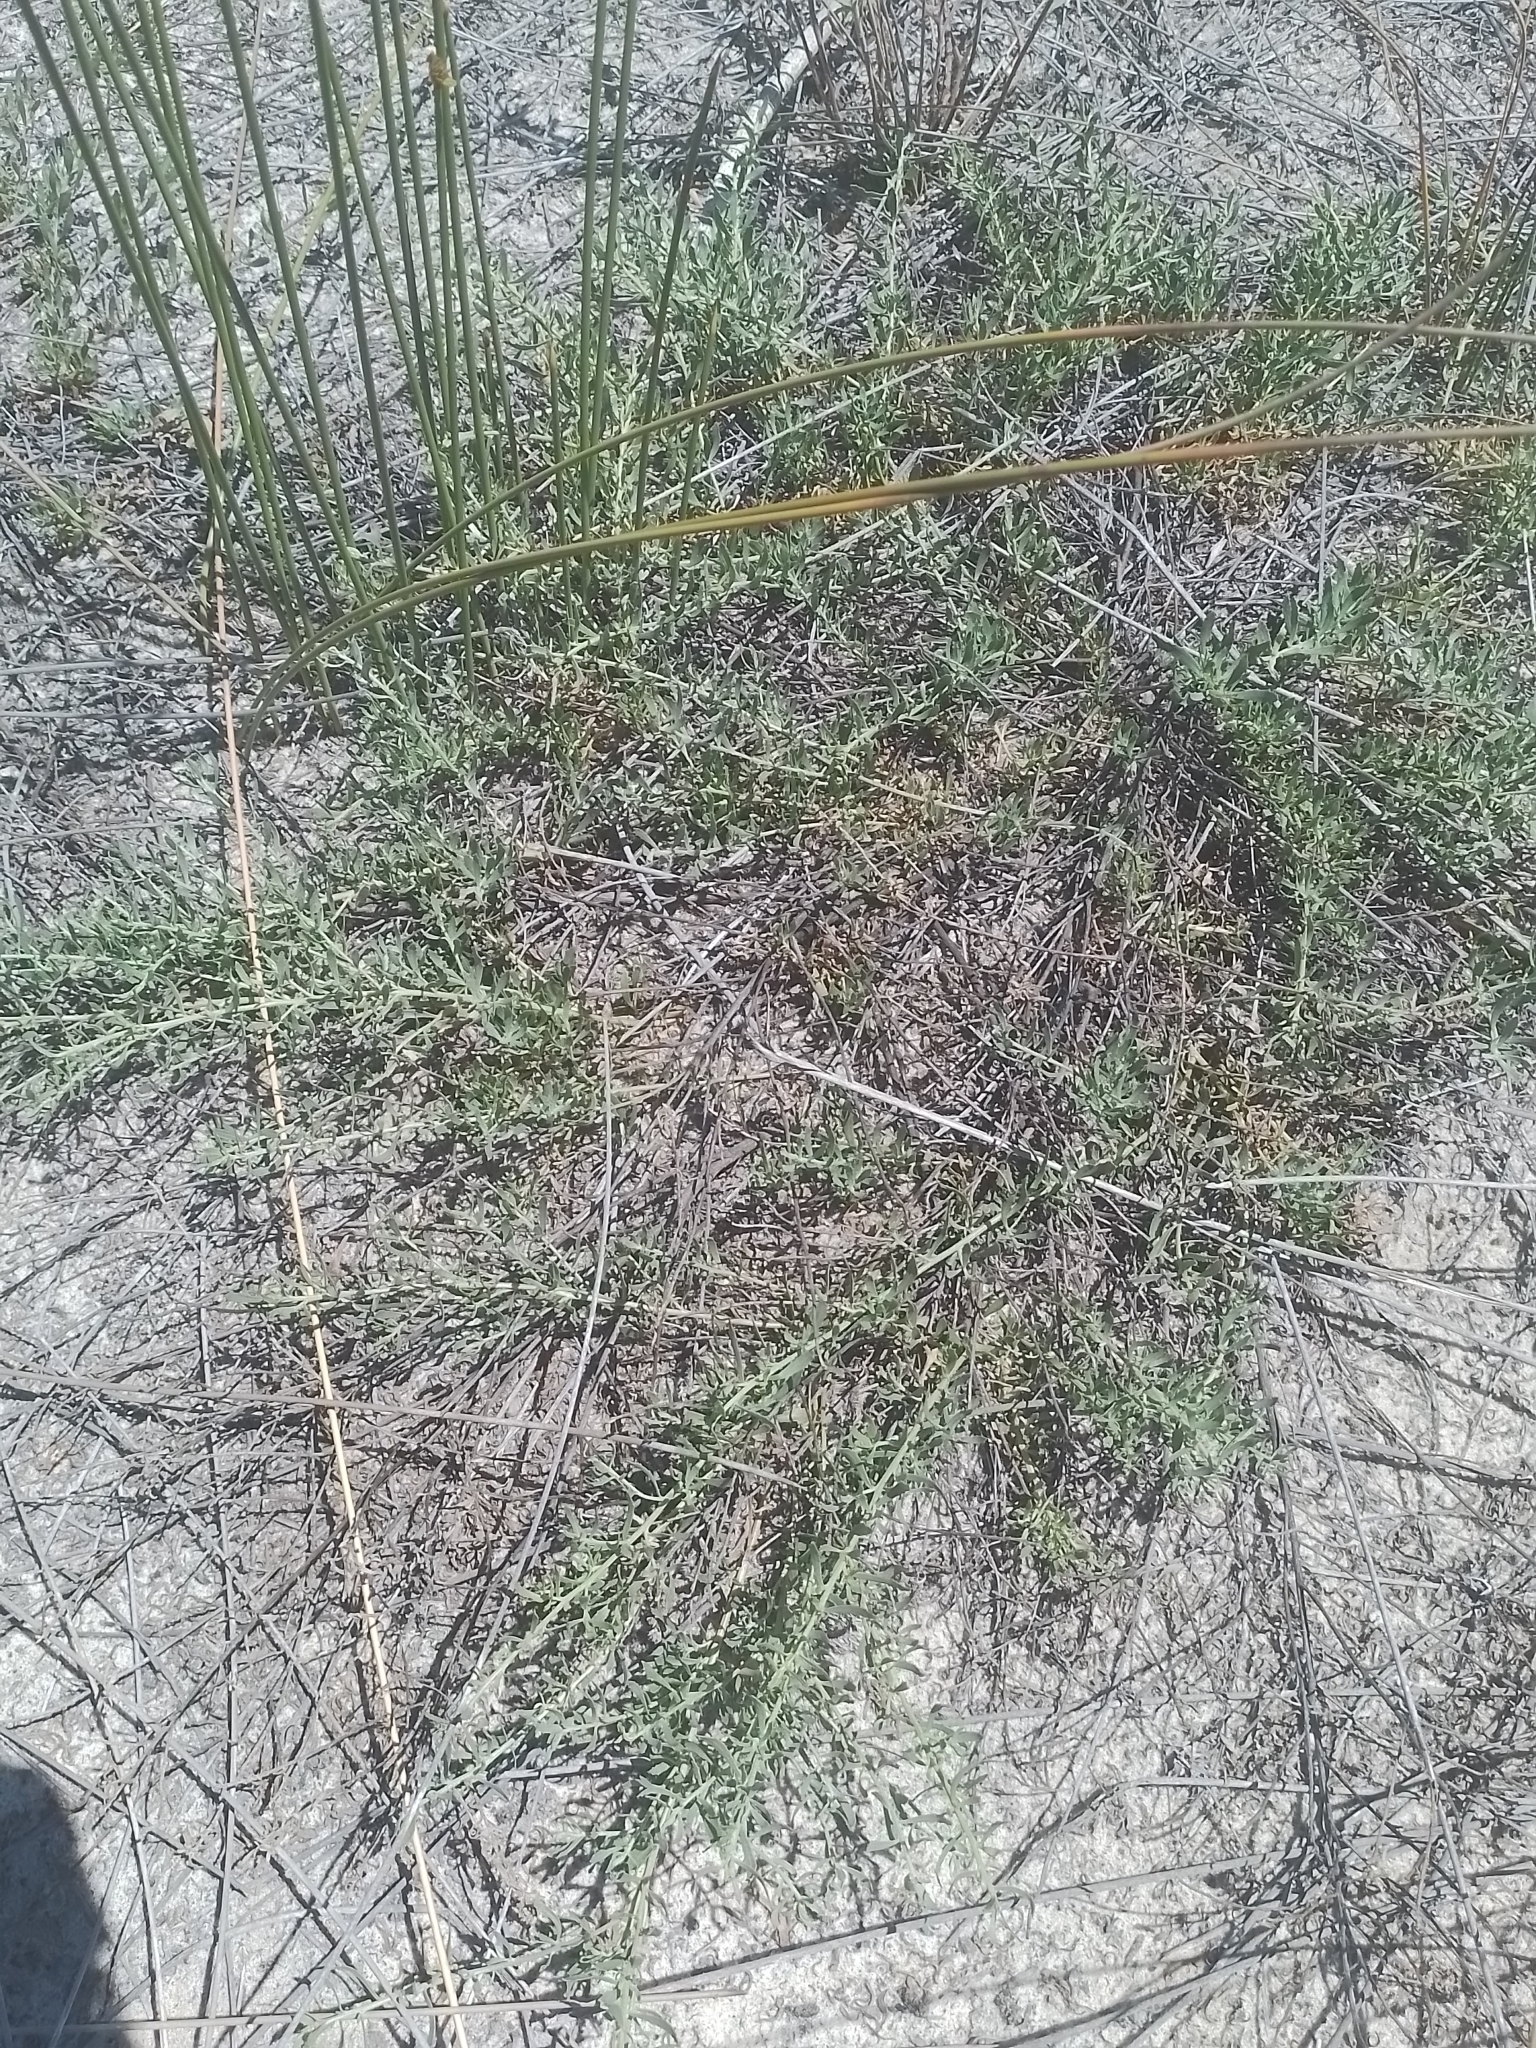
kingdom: Plantae
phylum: Tracheophyta
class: Magnoliopsida
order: Asterales
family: Asteraceae
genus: Baccharis
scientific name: Baccharis linearifolia
